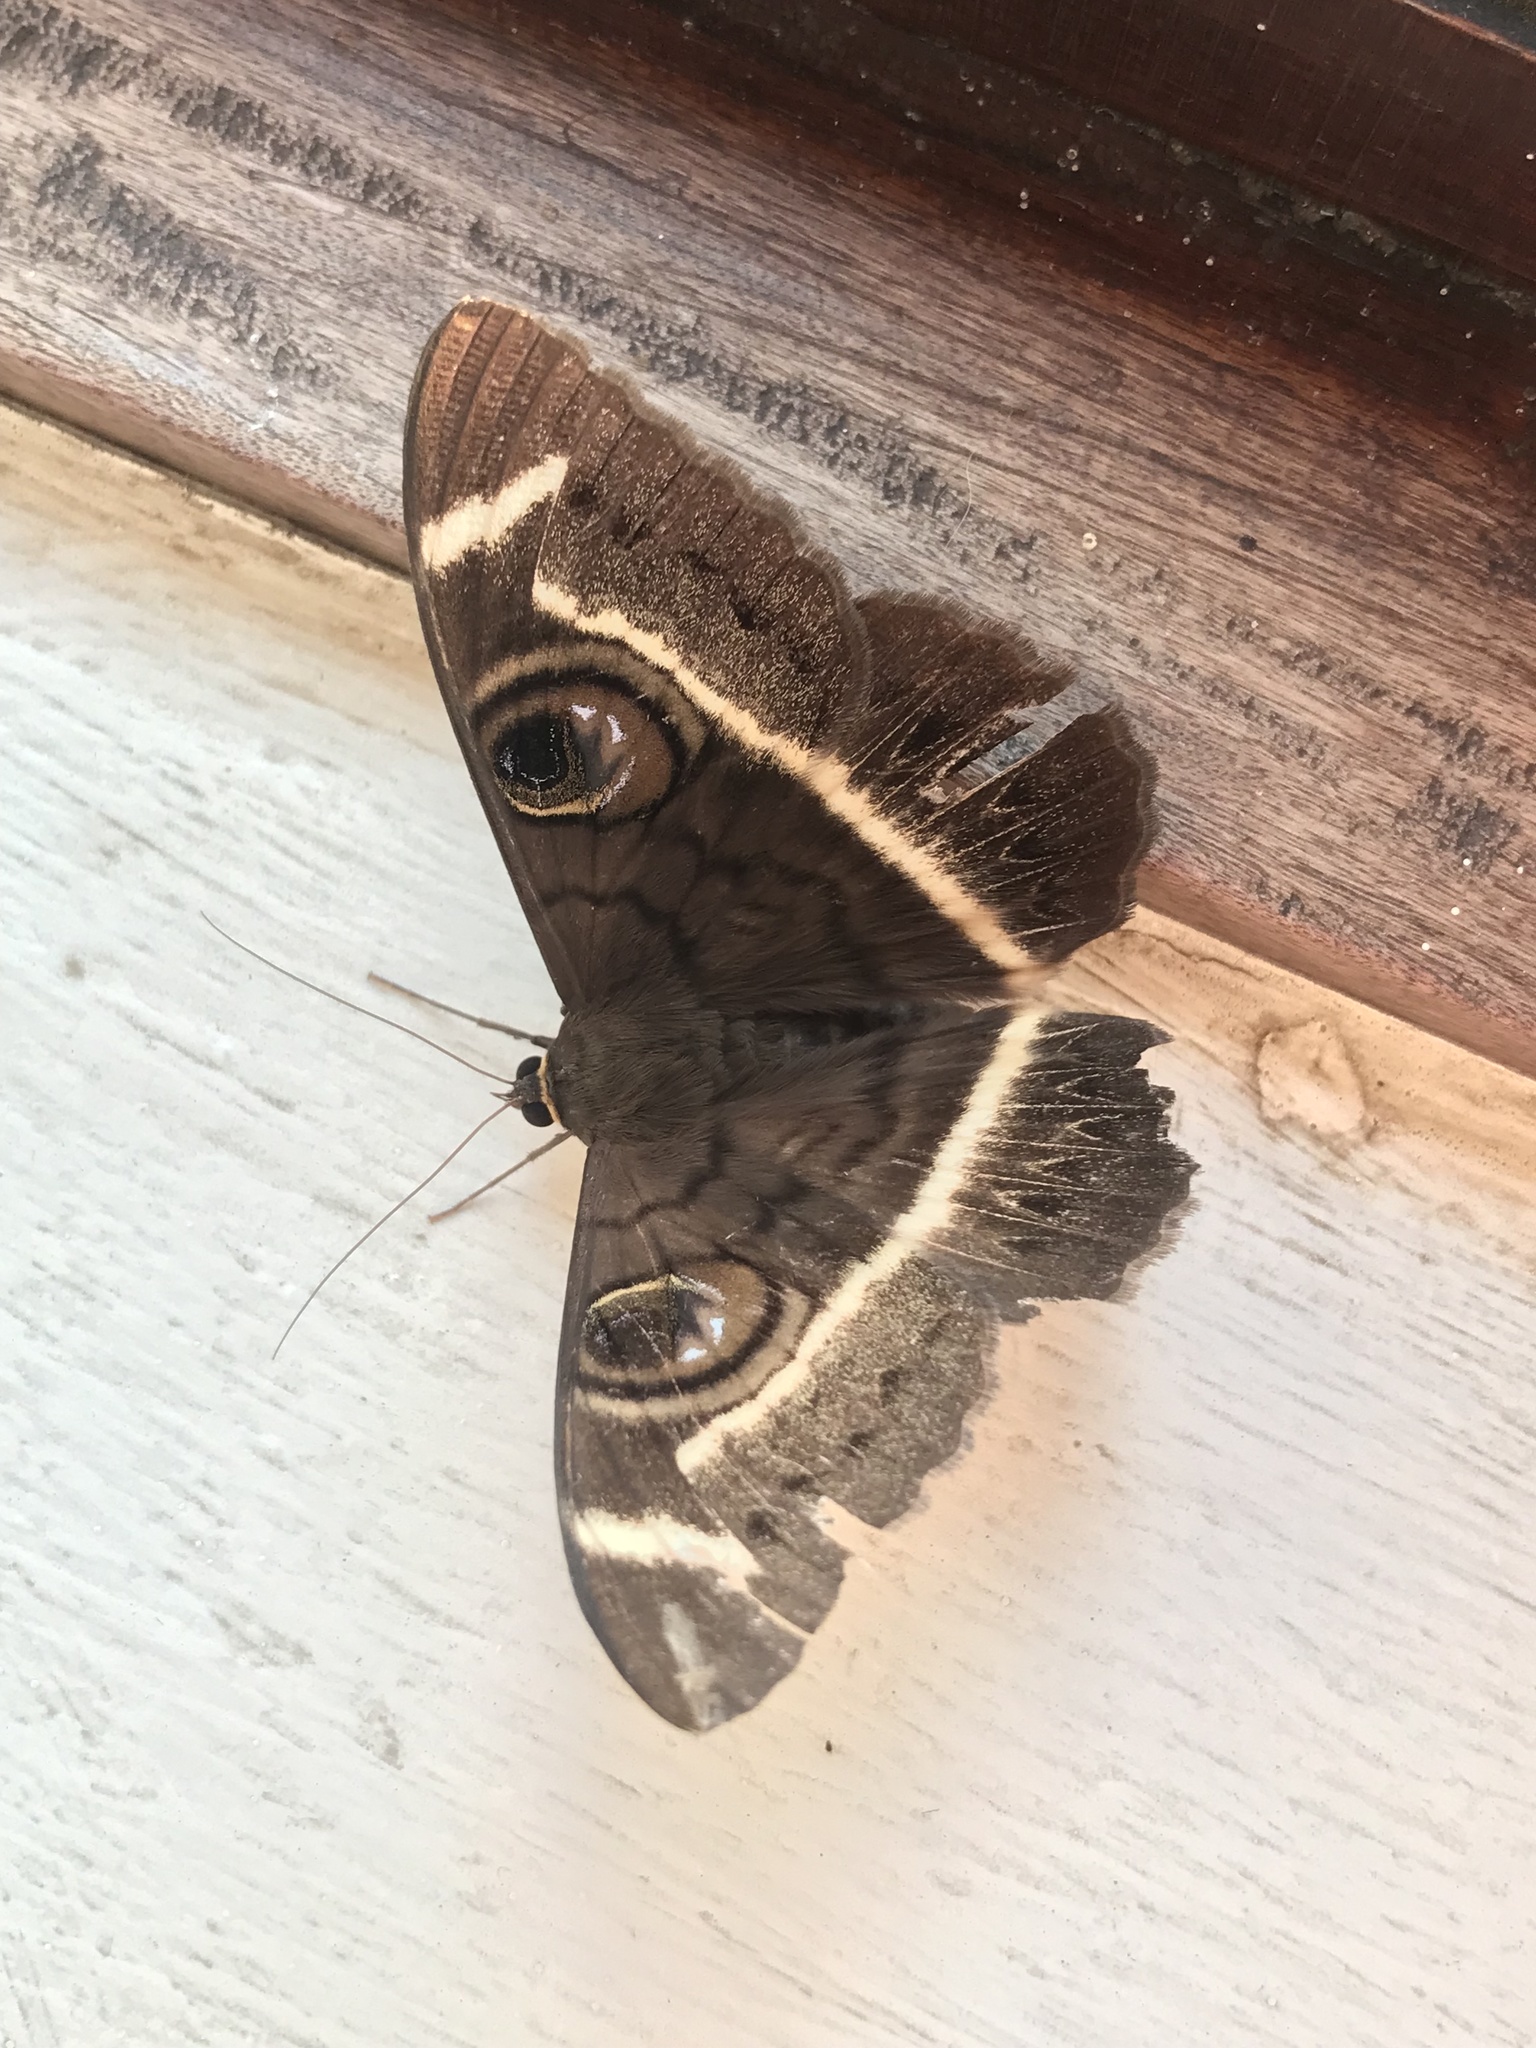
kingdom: Animalia
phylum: Arthropoda
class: Insecta
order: Lepidoptera
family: Erebidae
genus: Cyligramma
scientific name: Cyligramma latona
